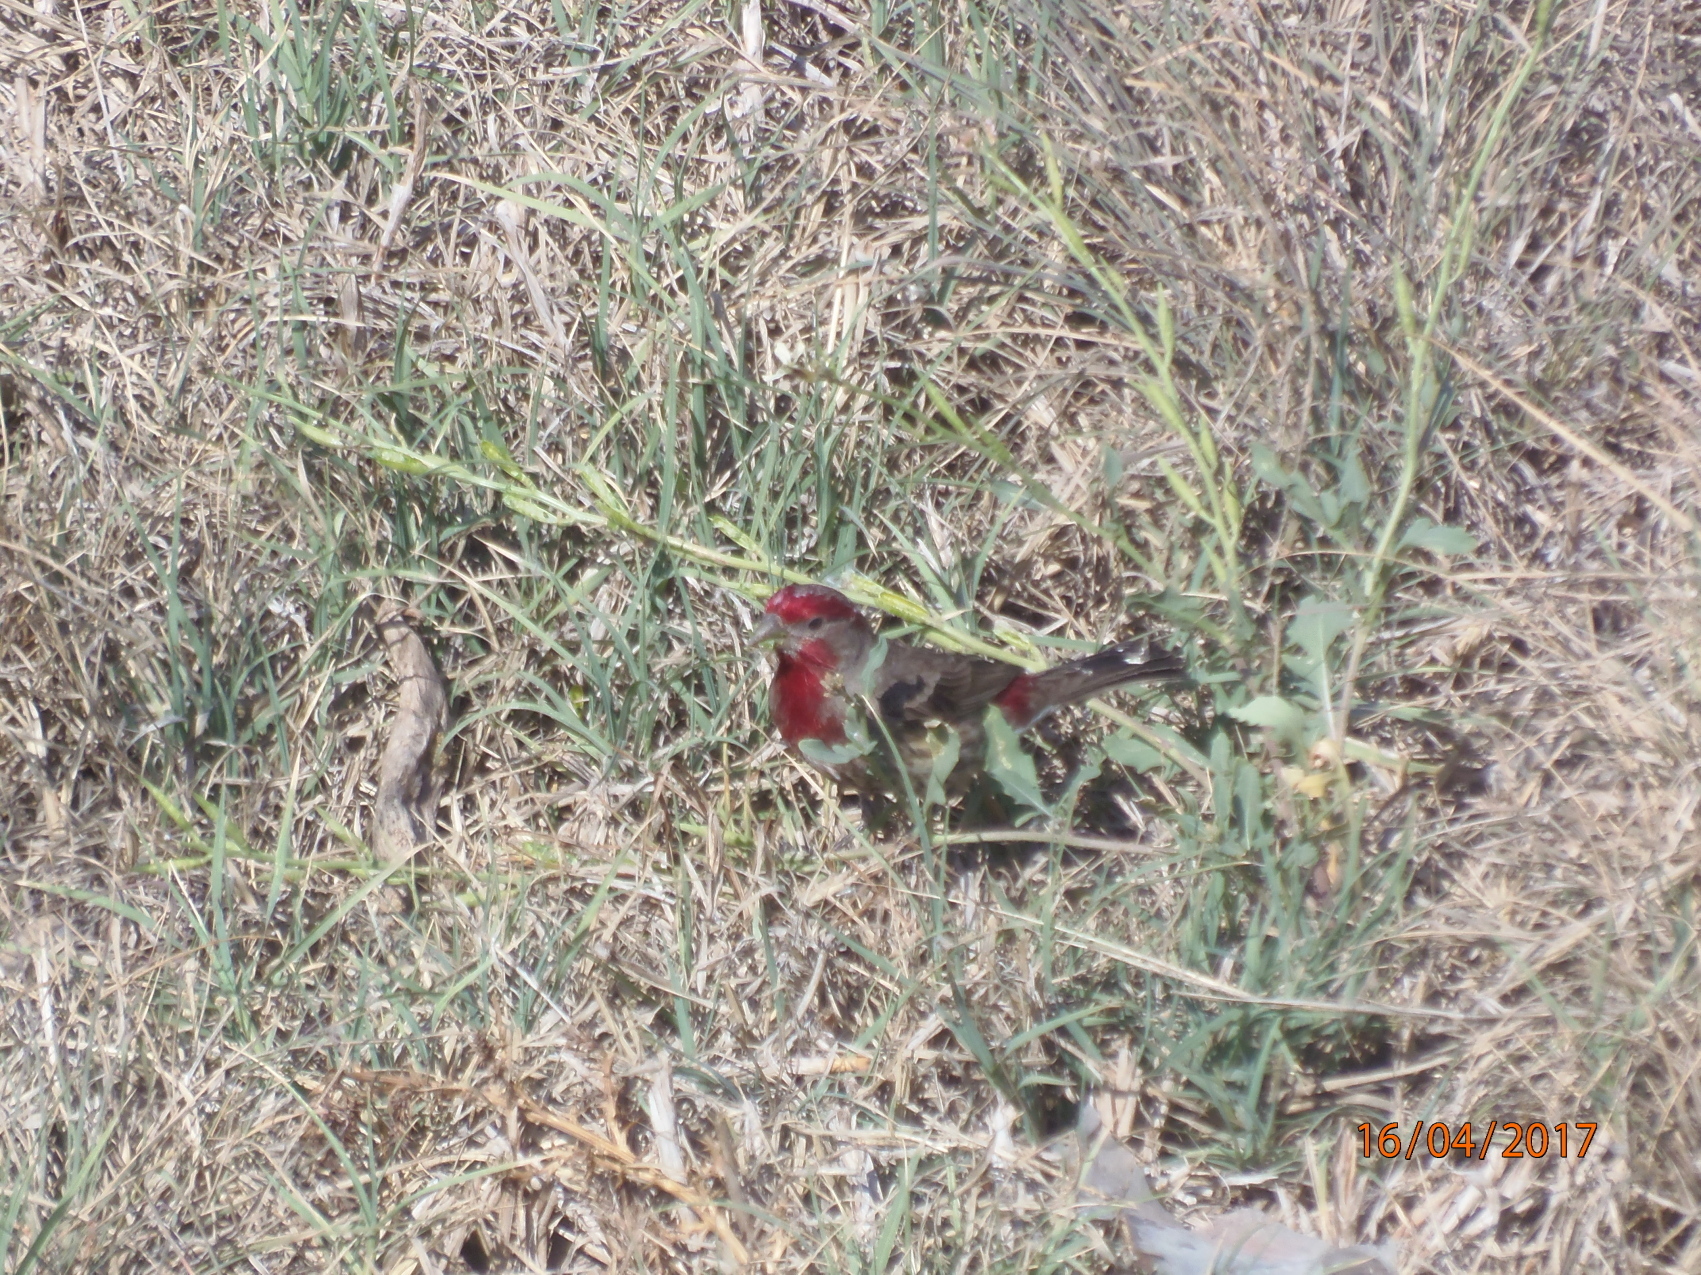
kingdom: Animalia
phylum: Chordata
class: Aves
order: Passeriformes
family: Fringillidae
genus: Haemorhous
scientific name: Haemorhous mexicanus
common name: House finch
